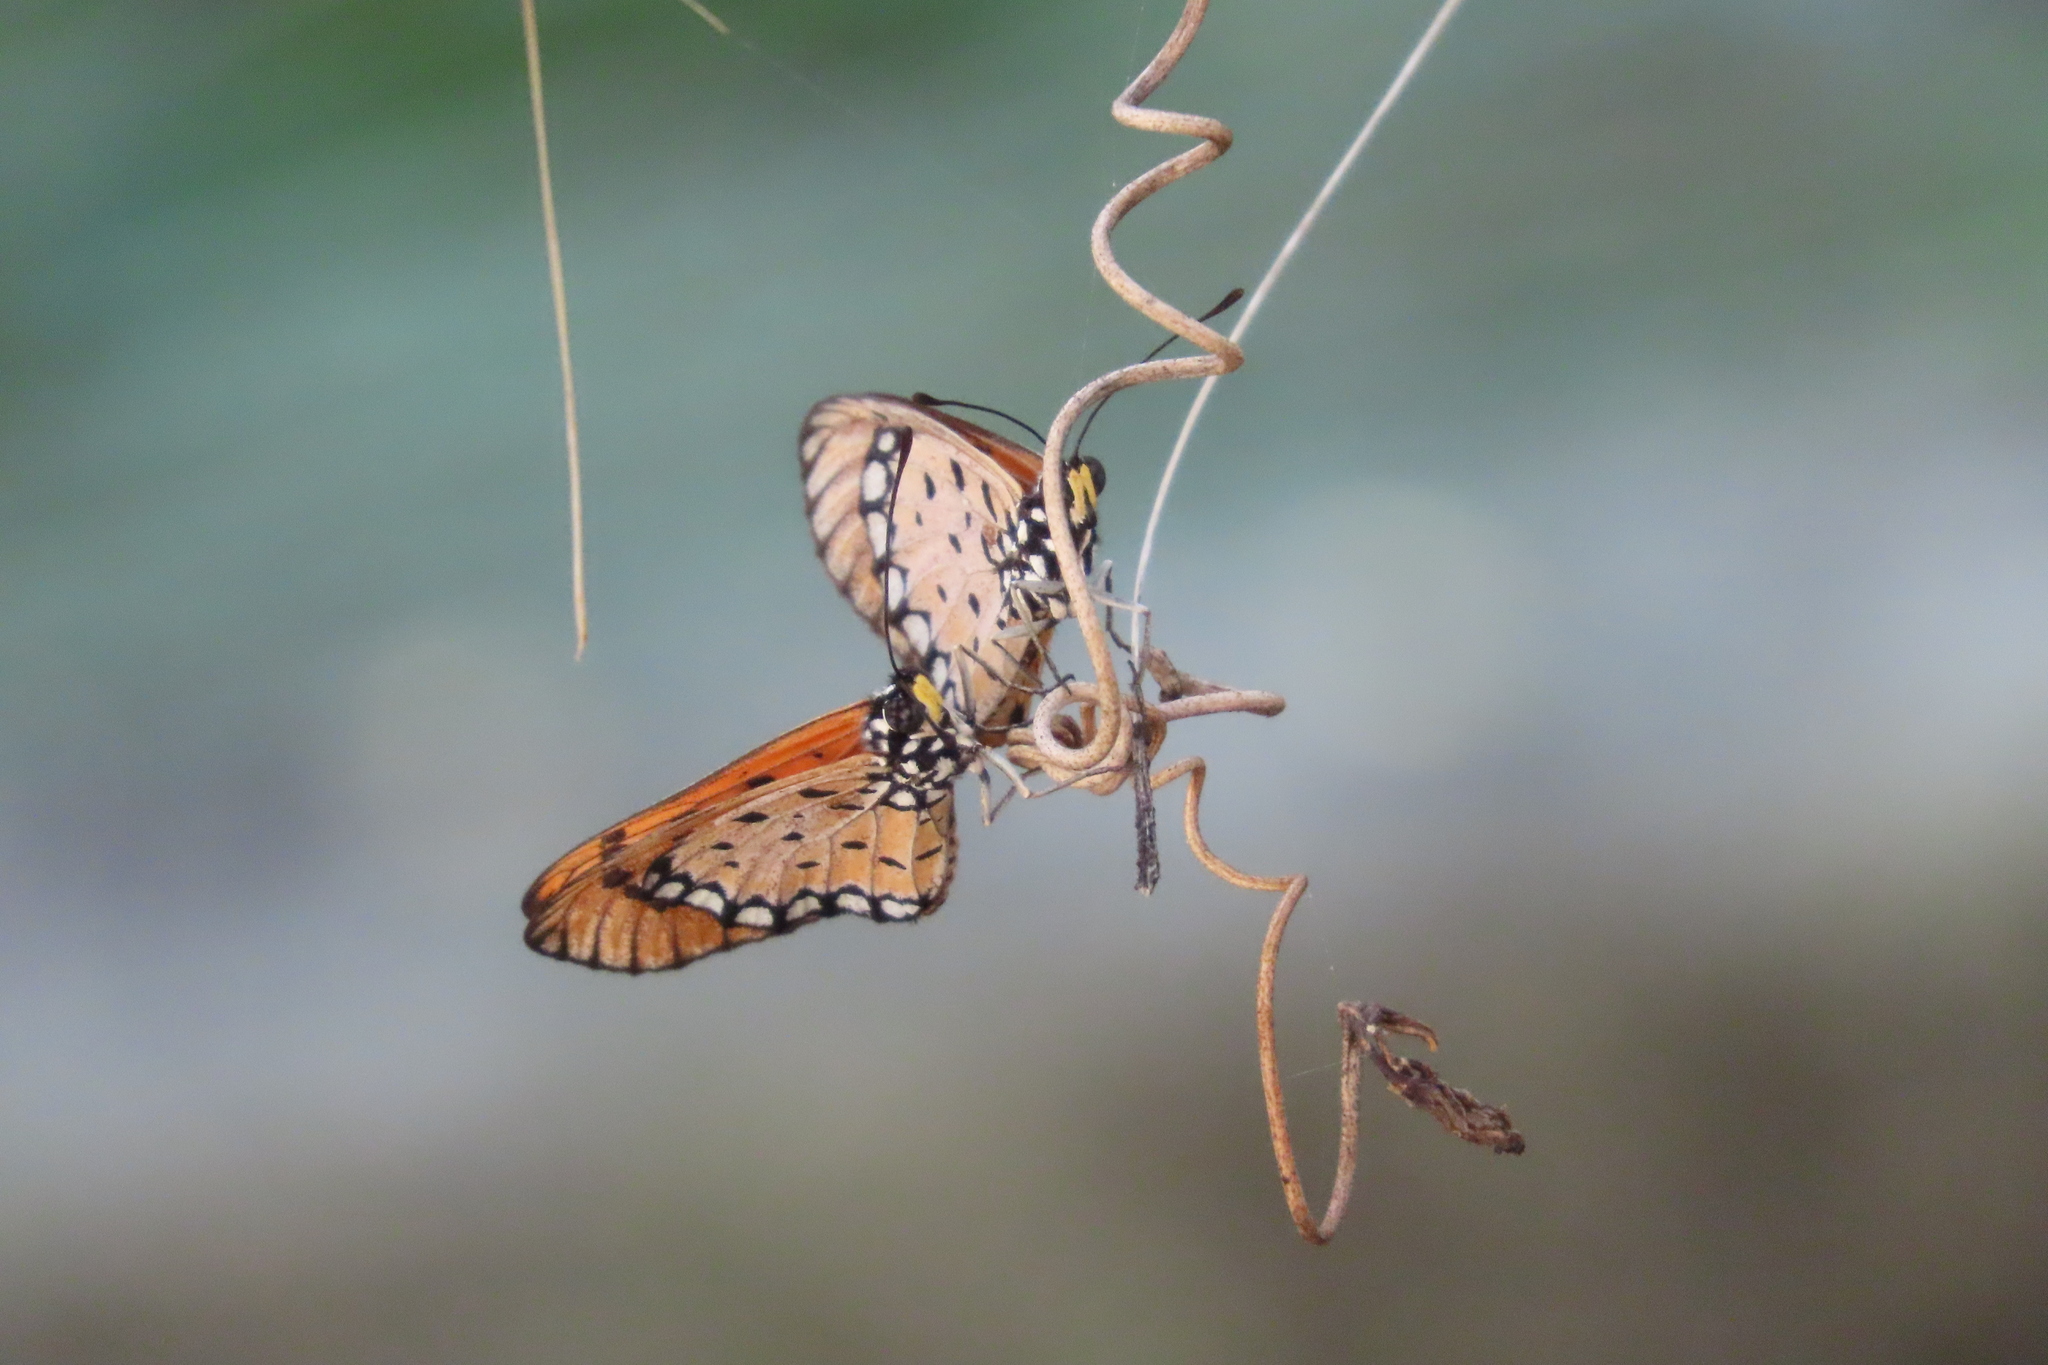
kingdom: Animalia
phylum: Arthropoda
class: Insecta
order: Lepidoptera
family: Nymphalidae
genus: Acraea
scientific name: Acraea terpsicore
